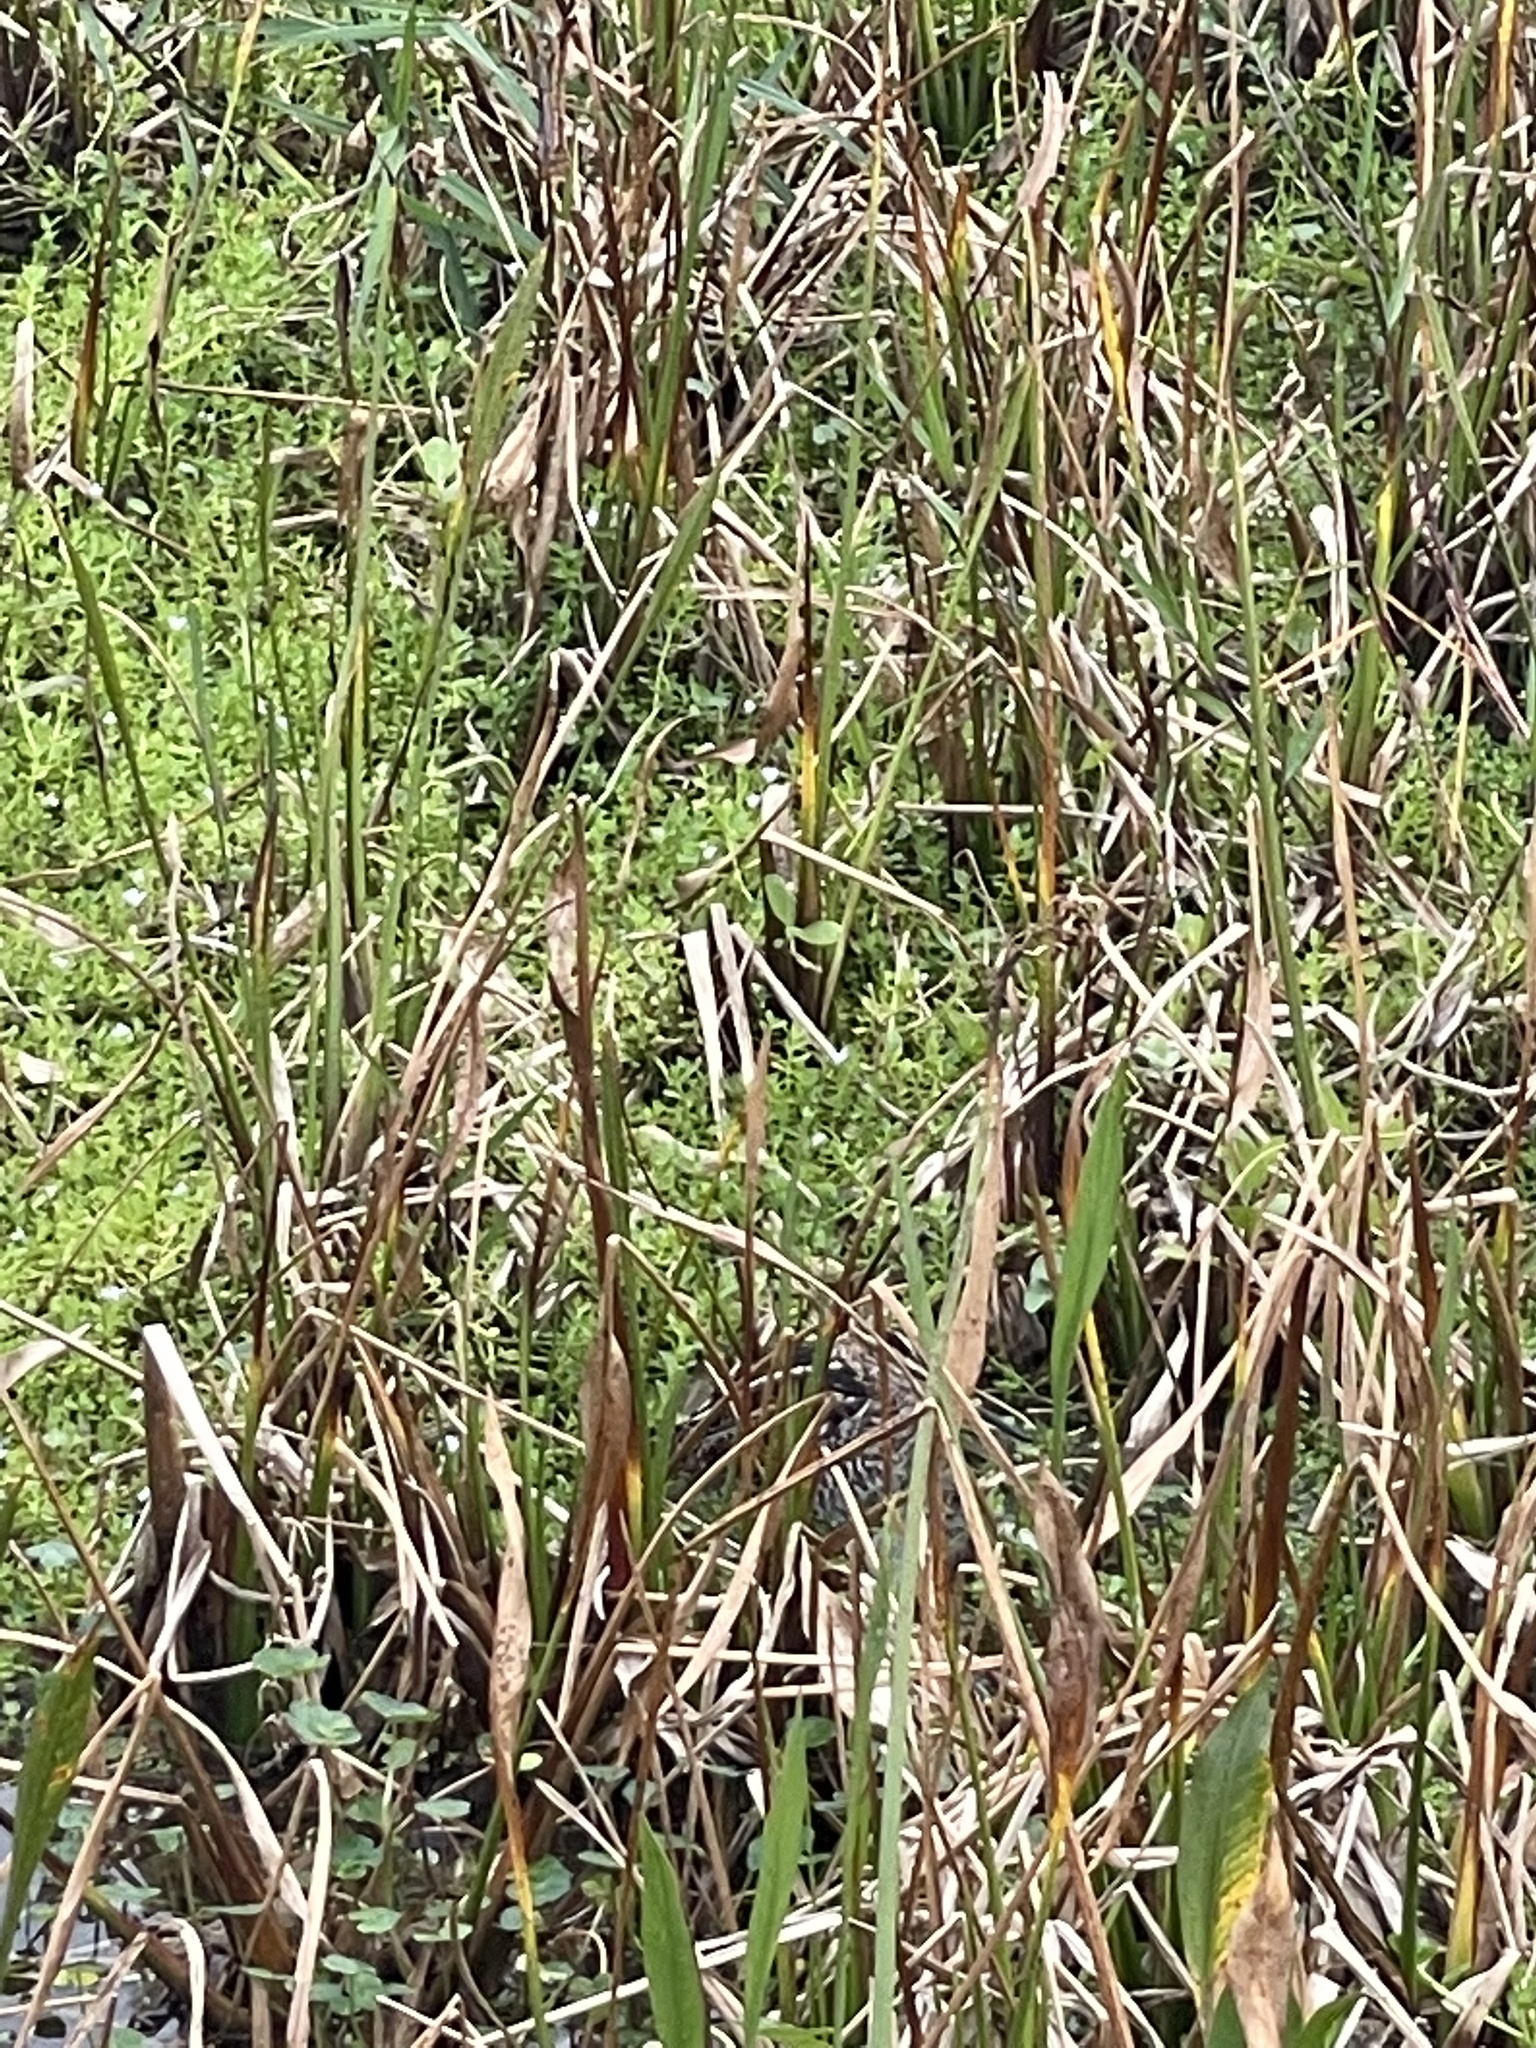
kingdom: Animalia
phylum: Chordata
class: Aves
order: Charadriiformes
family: Scolopacidae
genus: Gallinago
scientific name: Gallinago delicata
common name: Wilson's snipe
